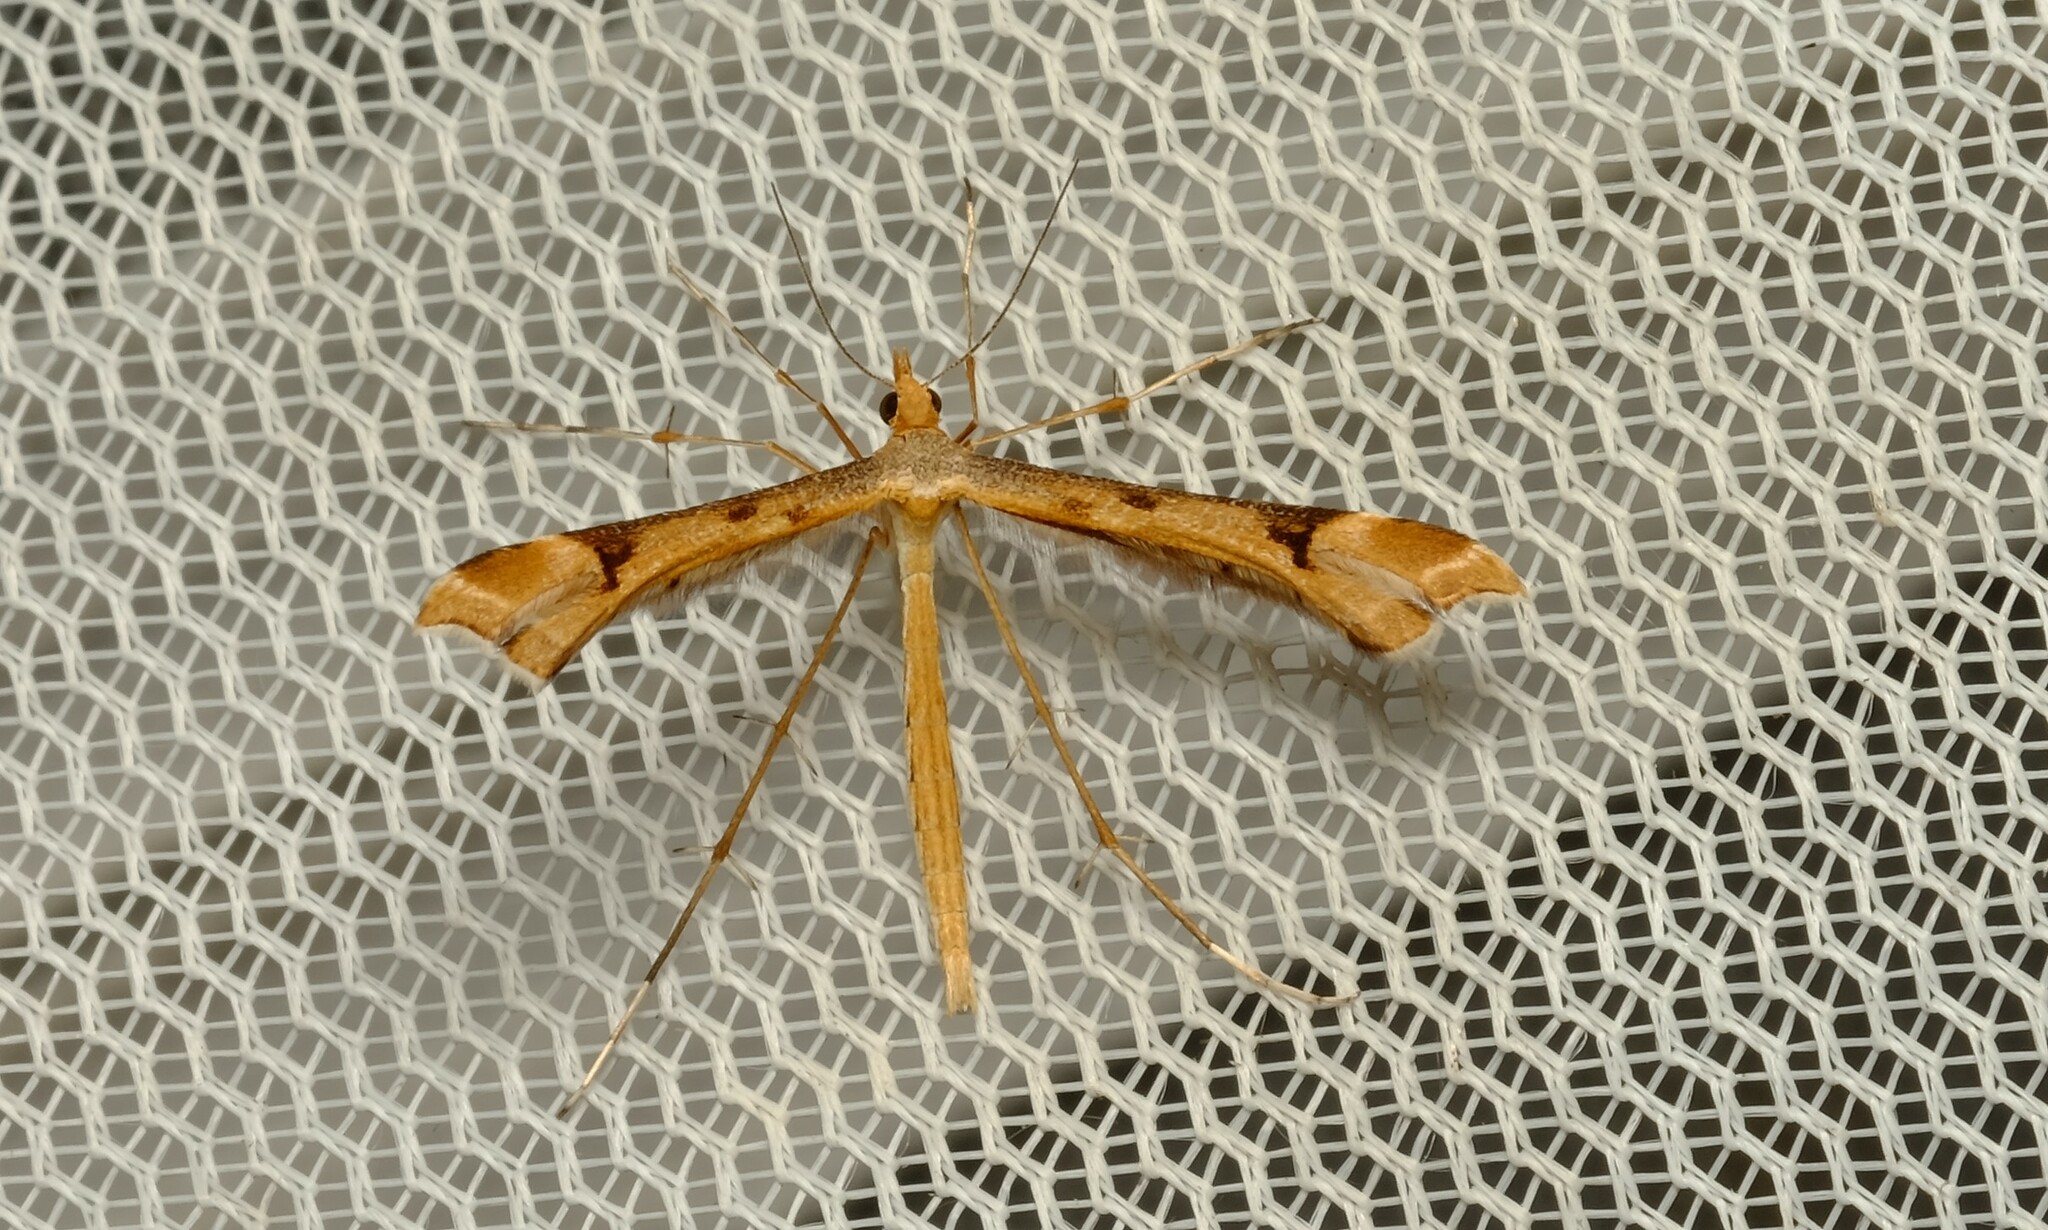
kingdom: Animalia
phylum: Arthropoda
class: Insecta
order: Lepidoptera
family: Pterophoridae
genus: Sinpunctiptilia
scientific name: Sinpunctiptilia emissalis
